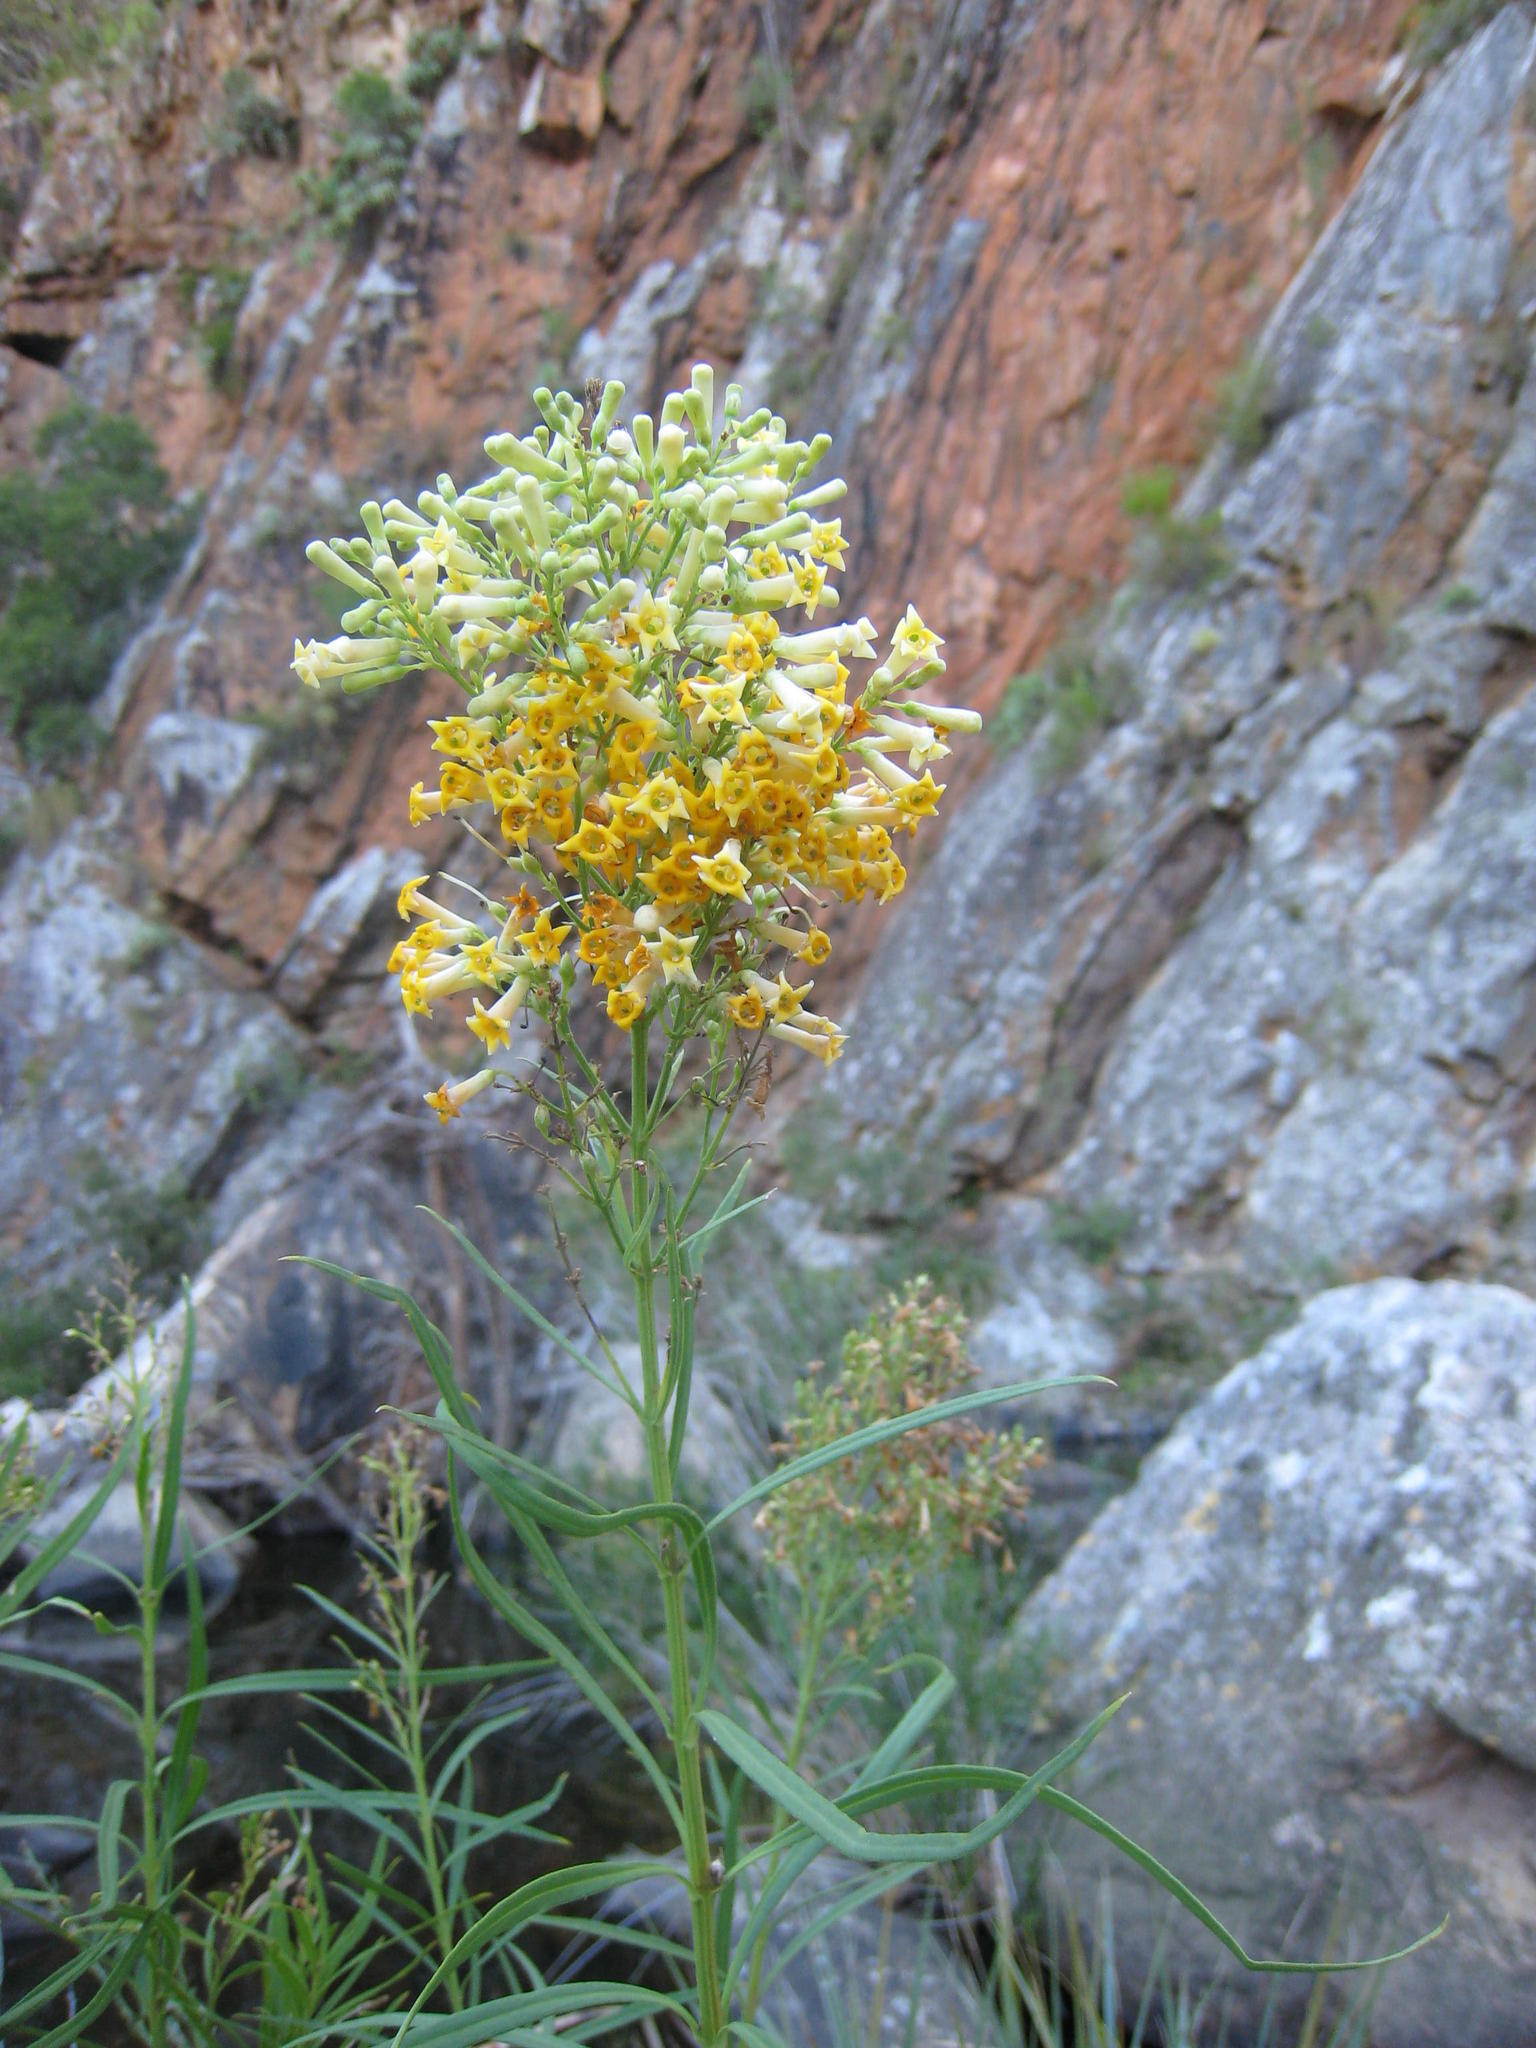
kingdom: Plantae
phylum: Tracheophyta
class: Magnoliopsida
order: Lamiales
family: Scrophulariaceae
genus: Freylinia
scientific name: Freylinia lanceolata
